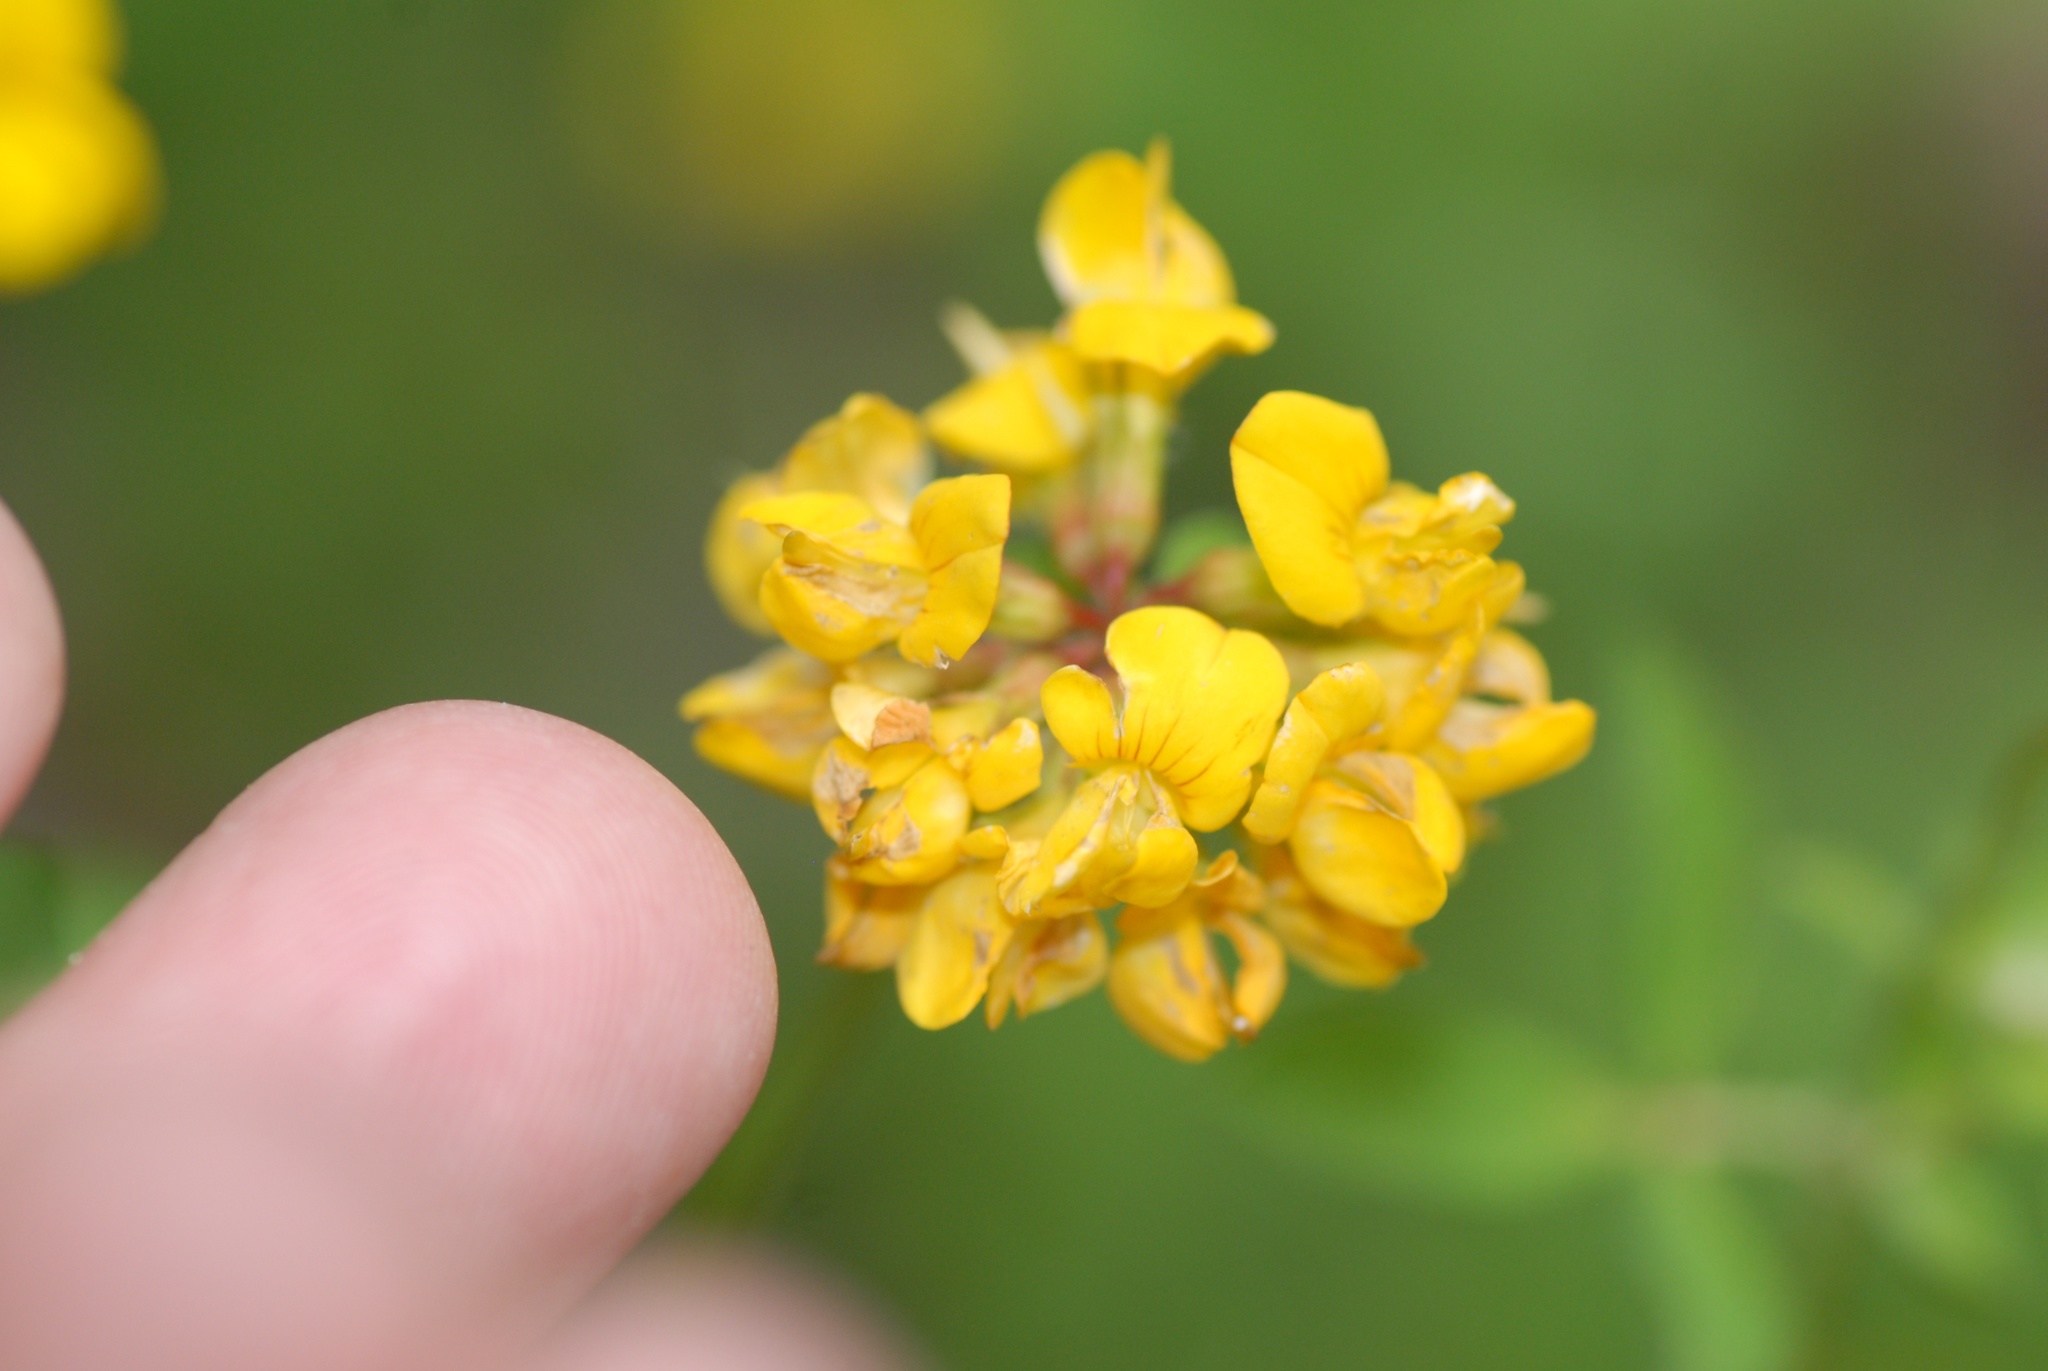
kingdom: Plantae
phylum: Tracheophyta
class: Magnoliopsida
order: Fabales
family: Fabaceae
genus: Lotus
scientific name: Lotus pedunculatus
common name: Greater birdsfoot-trefoil
